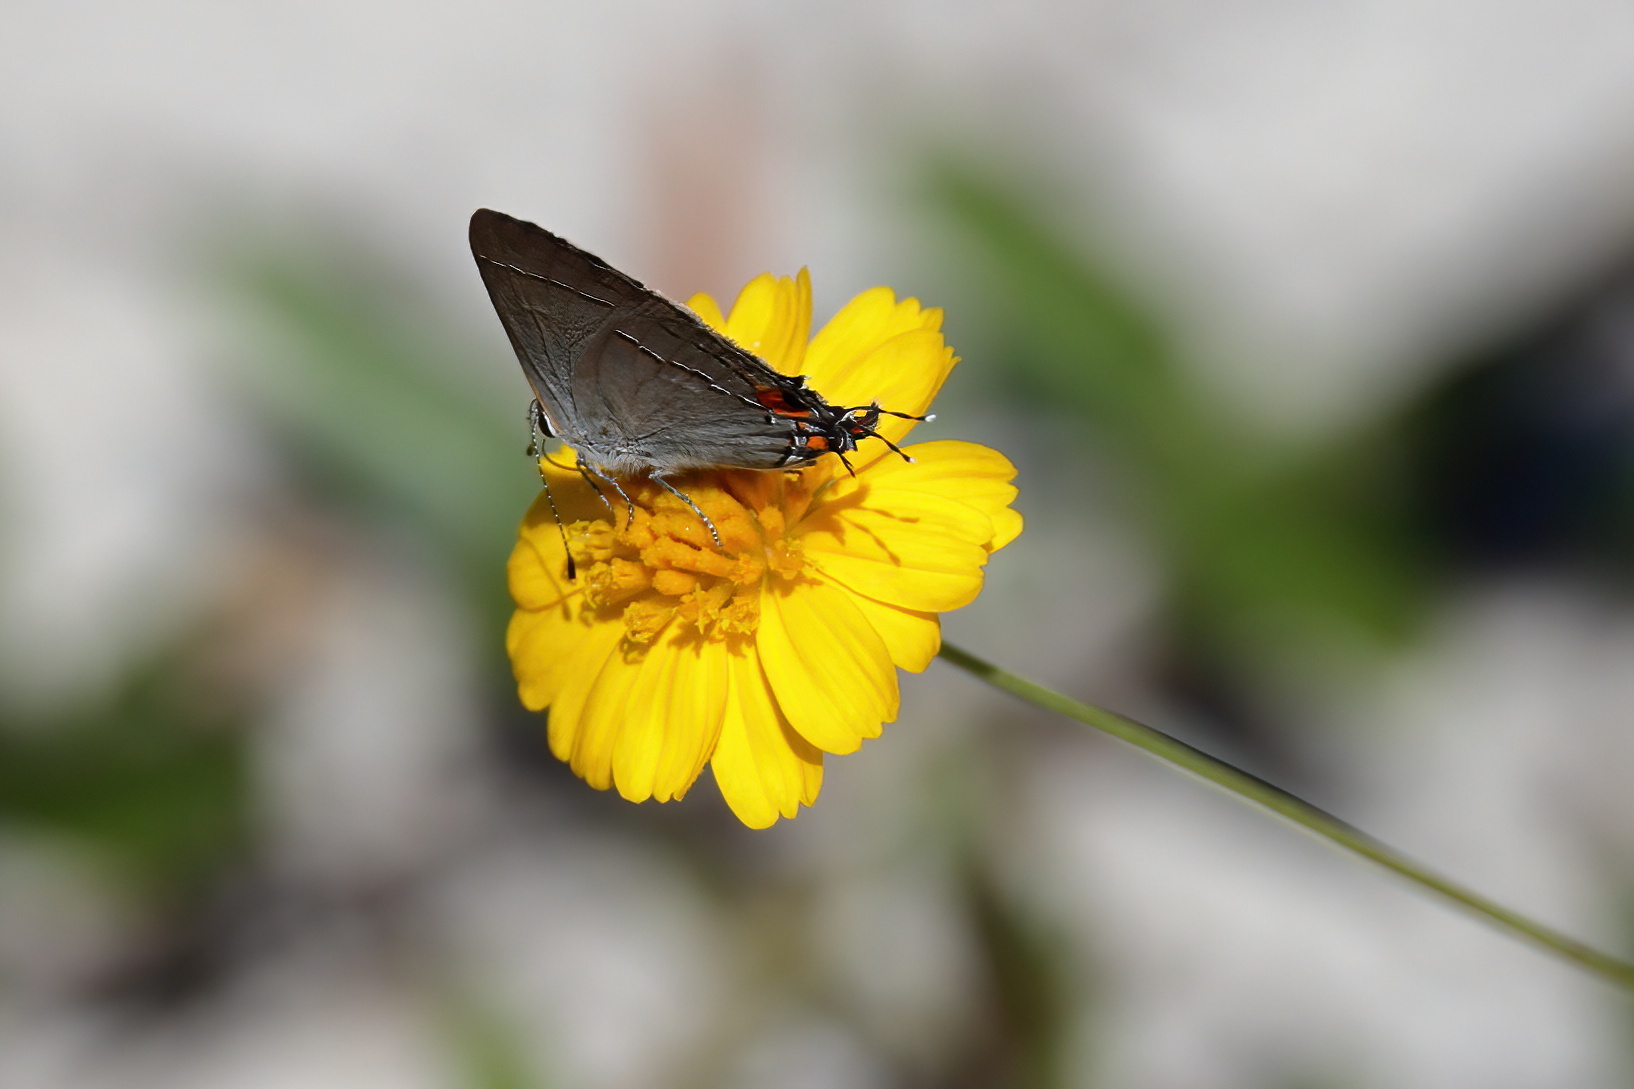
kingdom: Animalia
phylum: Arthropoda
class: Insecta
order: Lepidoptera
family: Lycaenidae
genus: Strymon
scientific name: Strymon melinus
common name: Gray hairstreak
